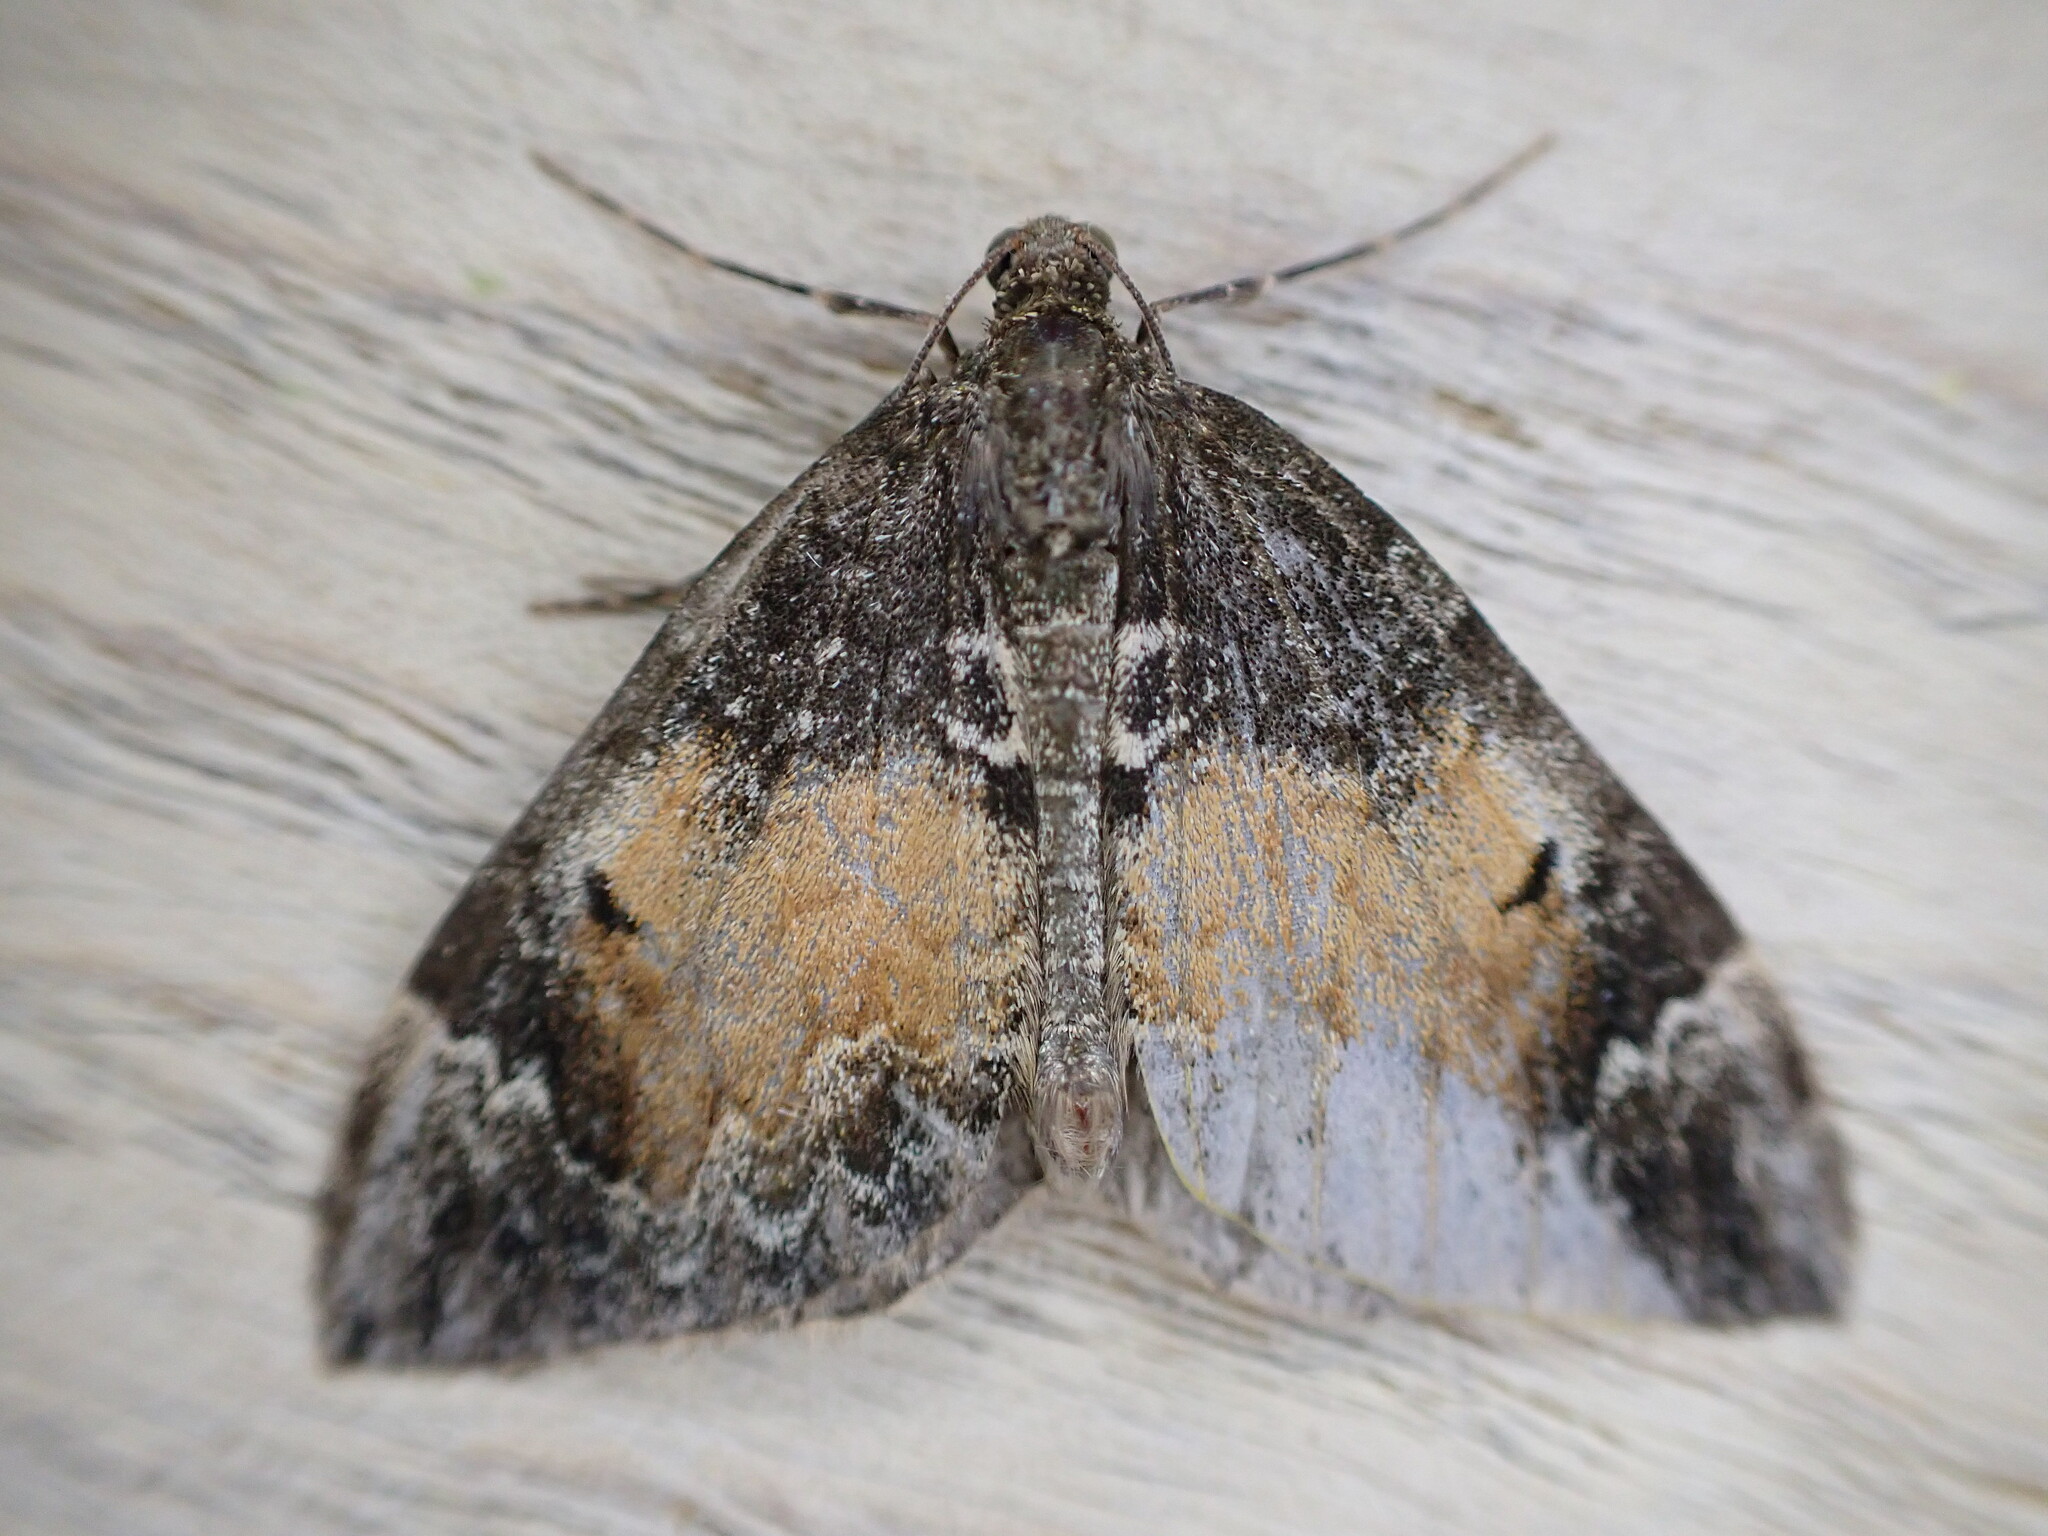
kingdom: Animalia
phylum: Arthropoda
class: Insecta
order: Lepidoptera
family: Geometridae
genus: Dysstroma
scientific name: Dysstroma truncata
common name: Common marbled carpet
